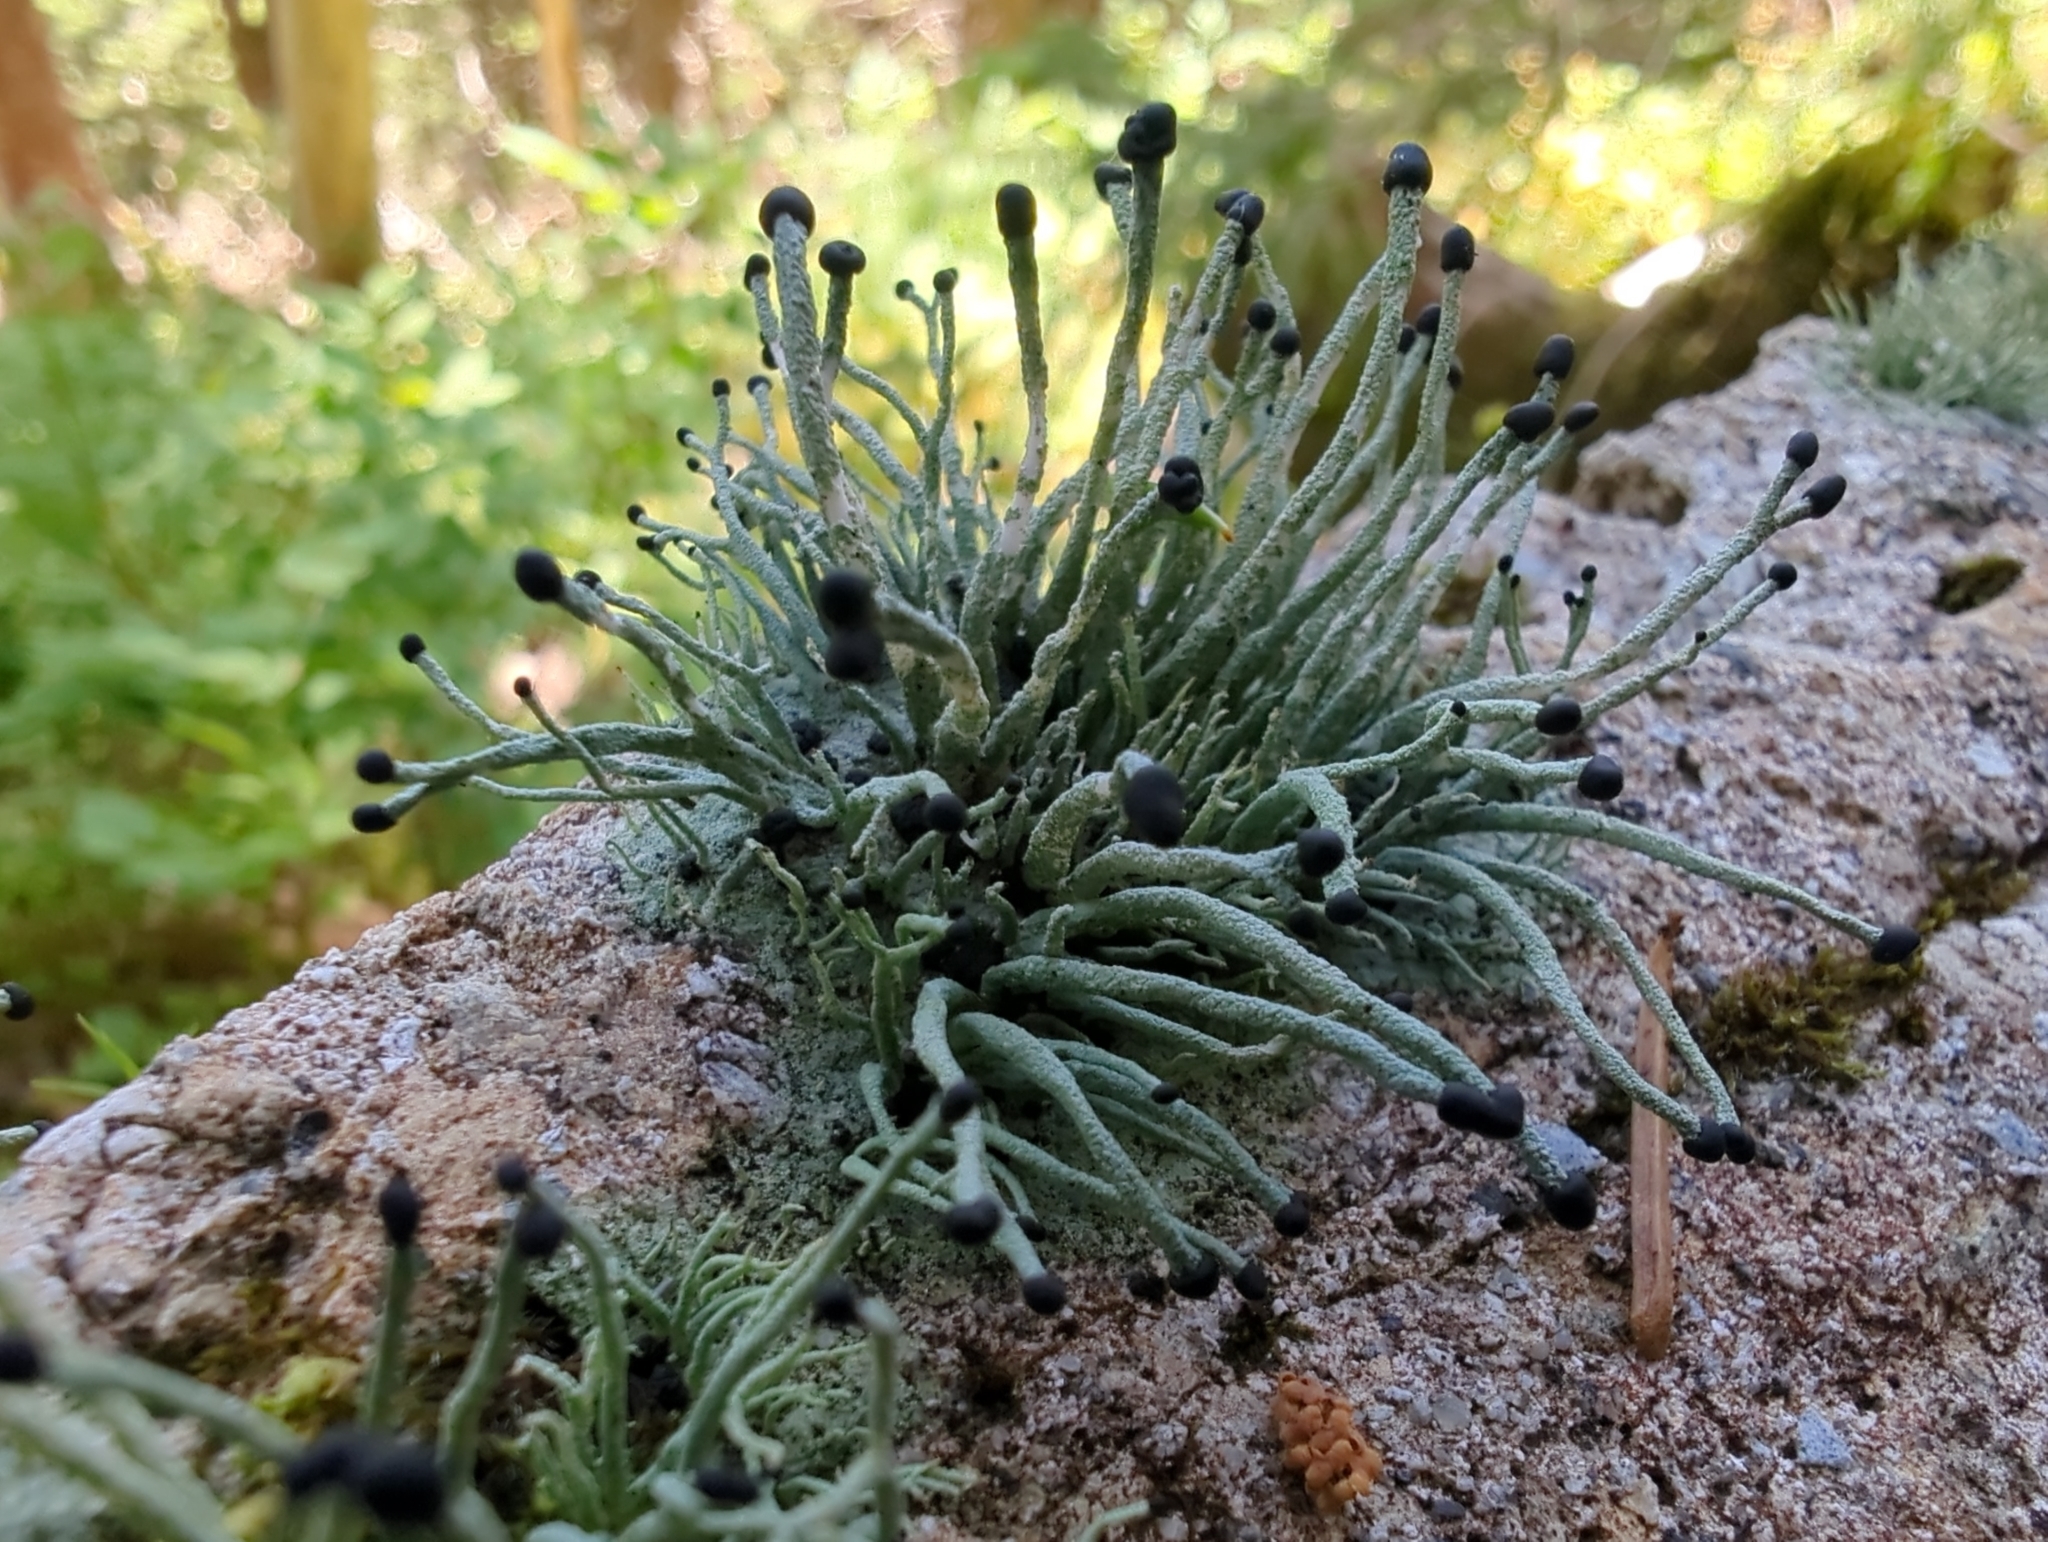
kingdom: Fungi
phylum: Ascomycota
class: Lecanoromycetes
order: Lecanorales
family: Cladoniaceae
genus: Pilophorus
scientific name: Pilophorus acicularis
